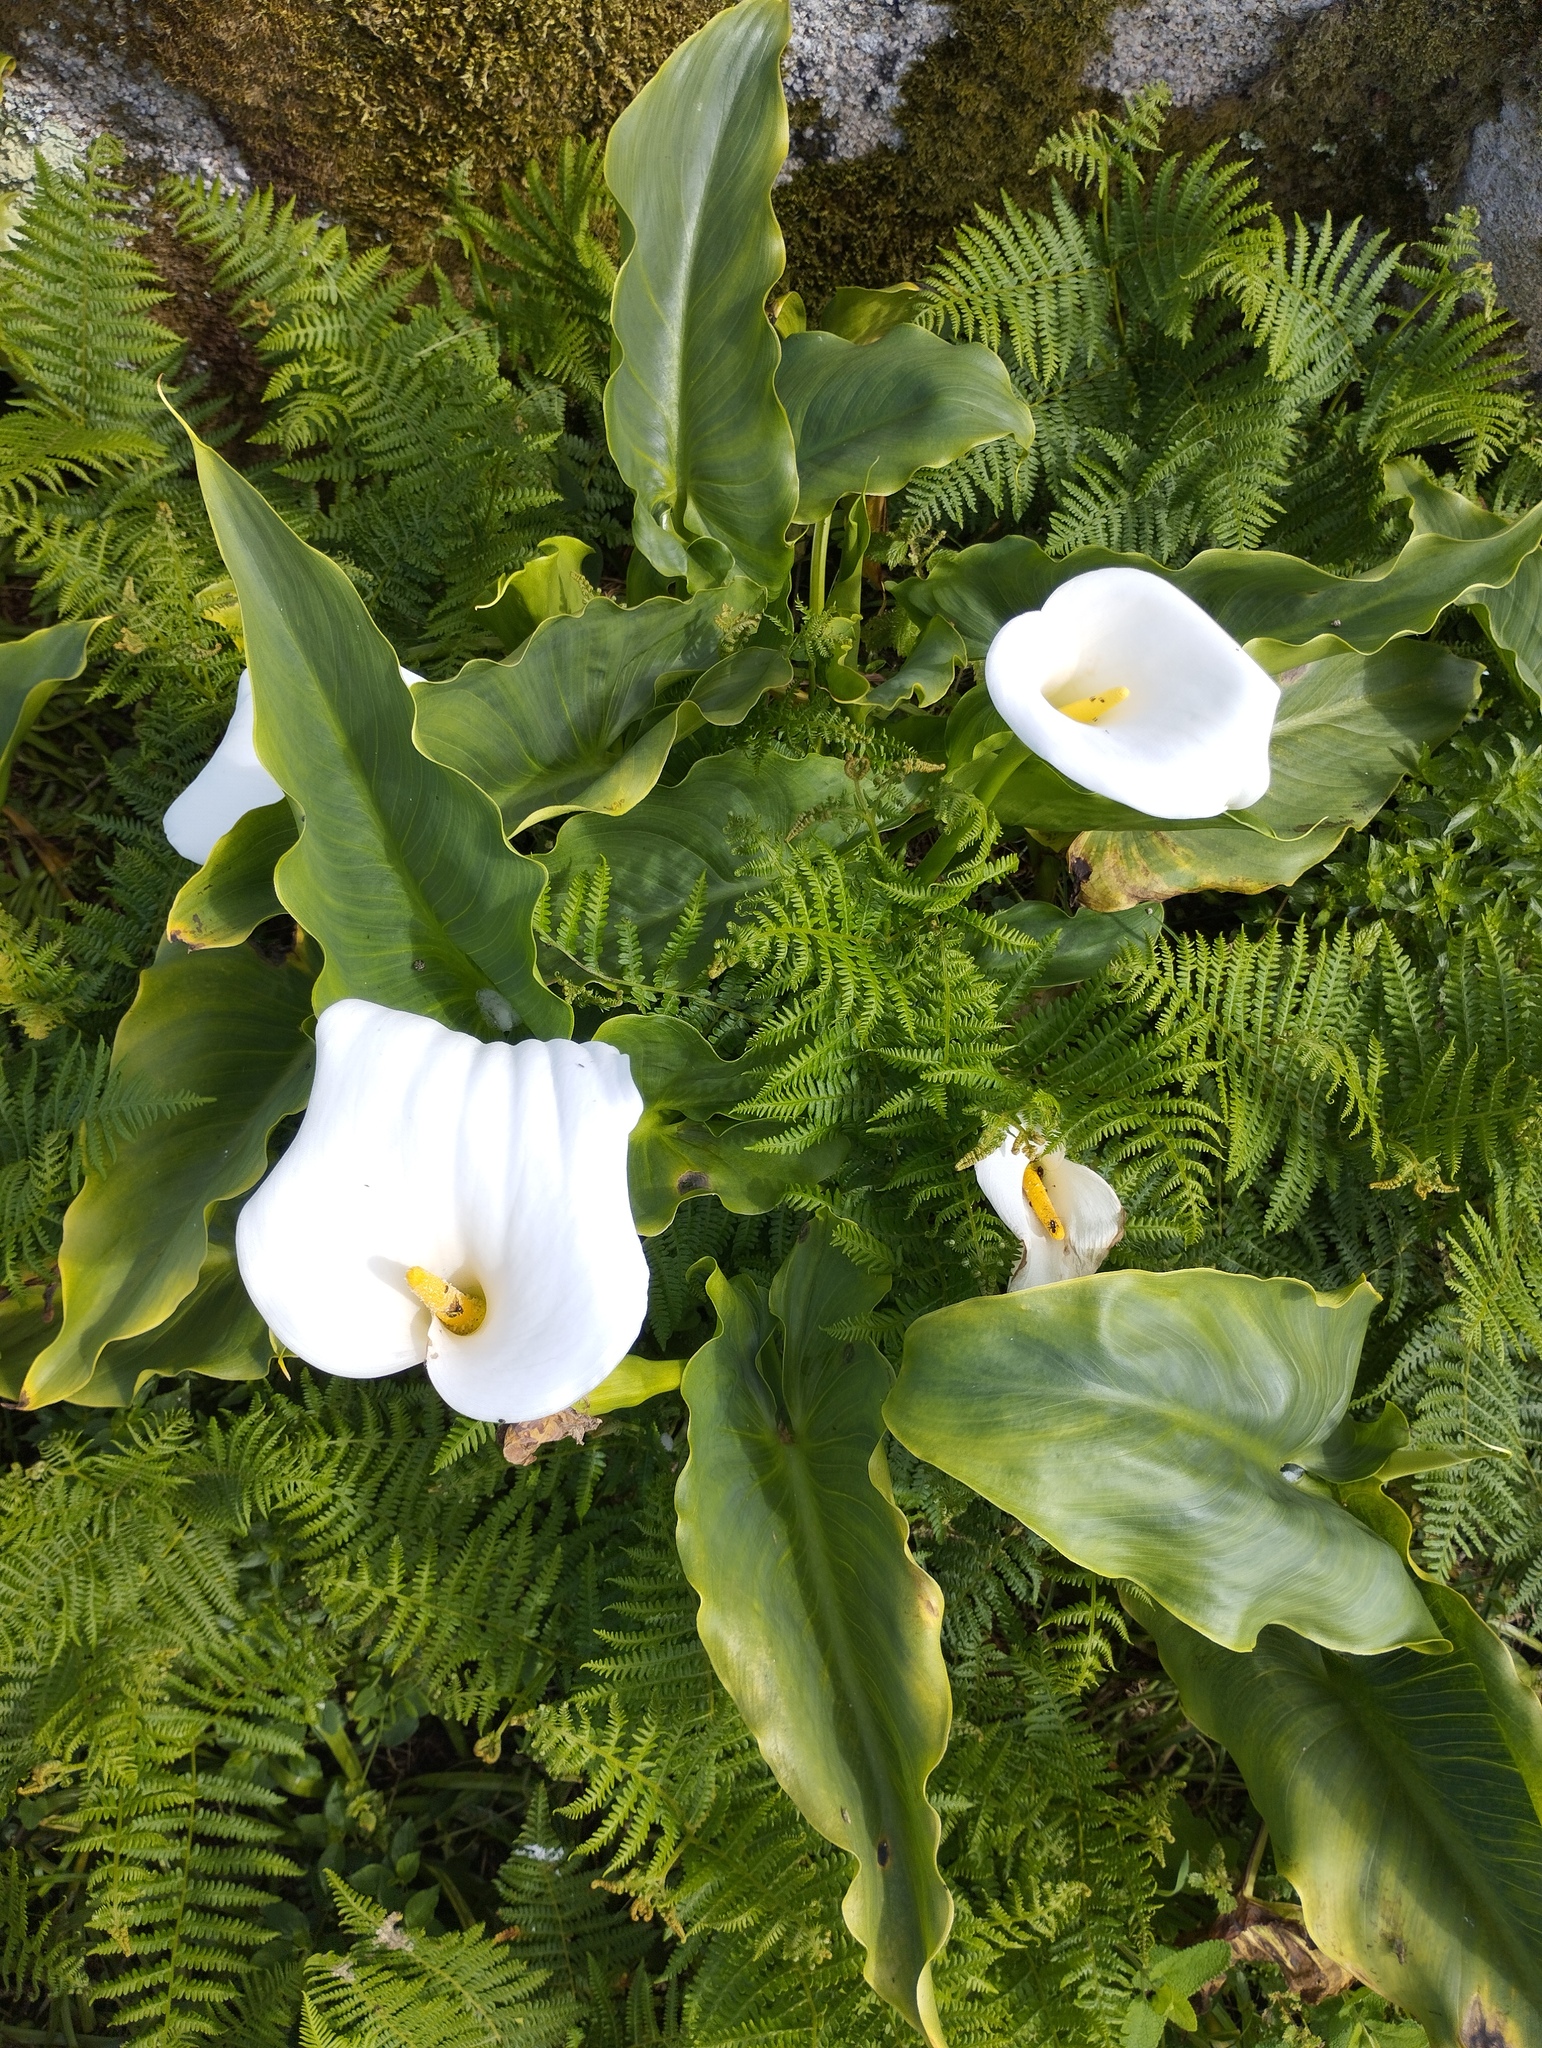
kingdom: Plantae
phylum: Tracheophyta
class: Liliopsida
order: Alismatales
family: Araceae
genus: Zantedeschia
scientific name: Zantedeschia aethiopica
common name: Altar-lily
